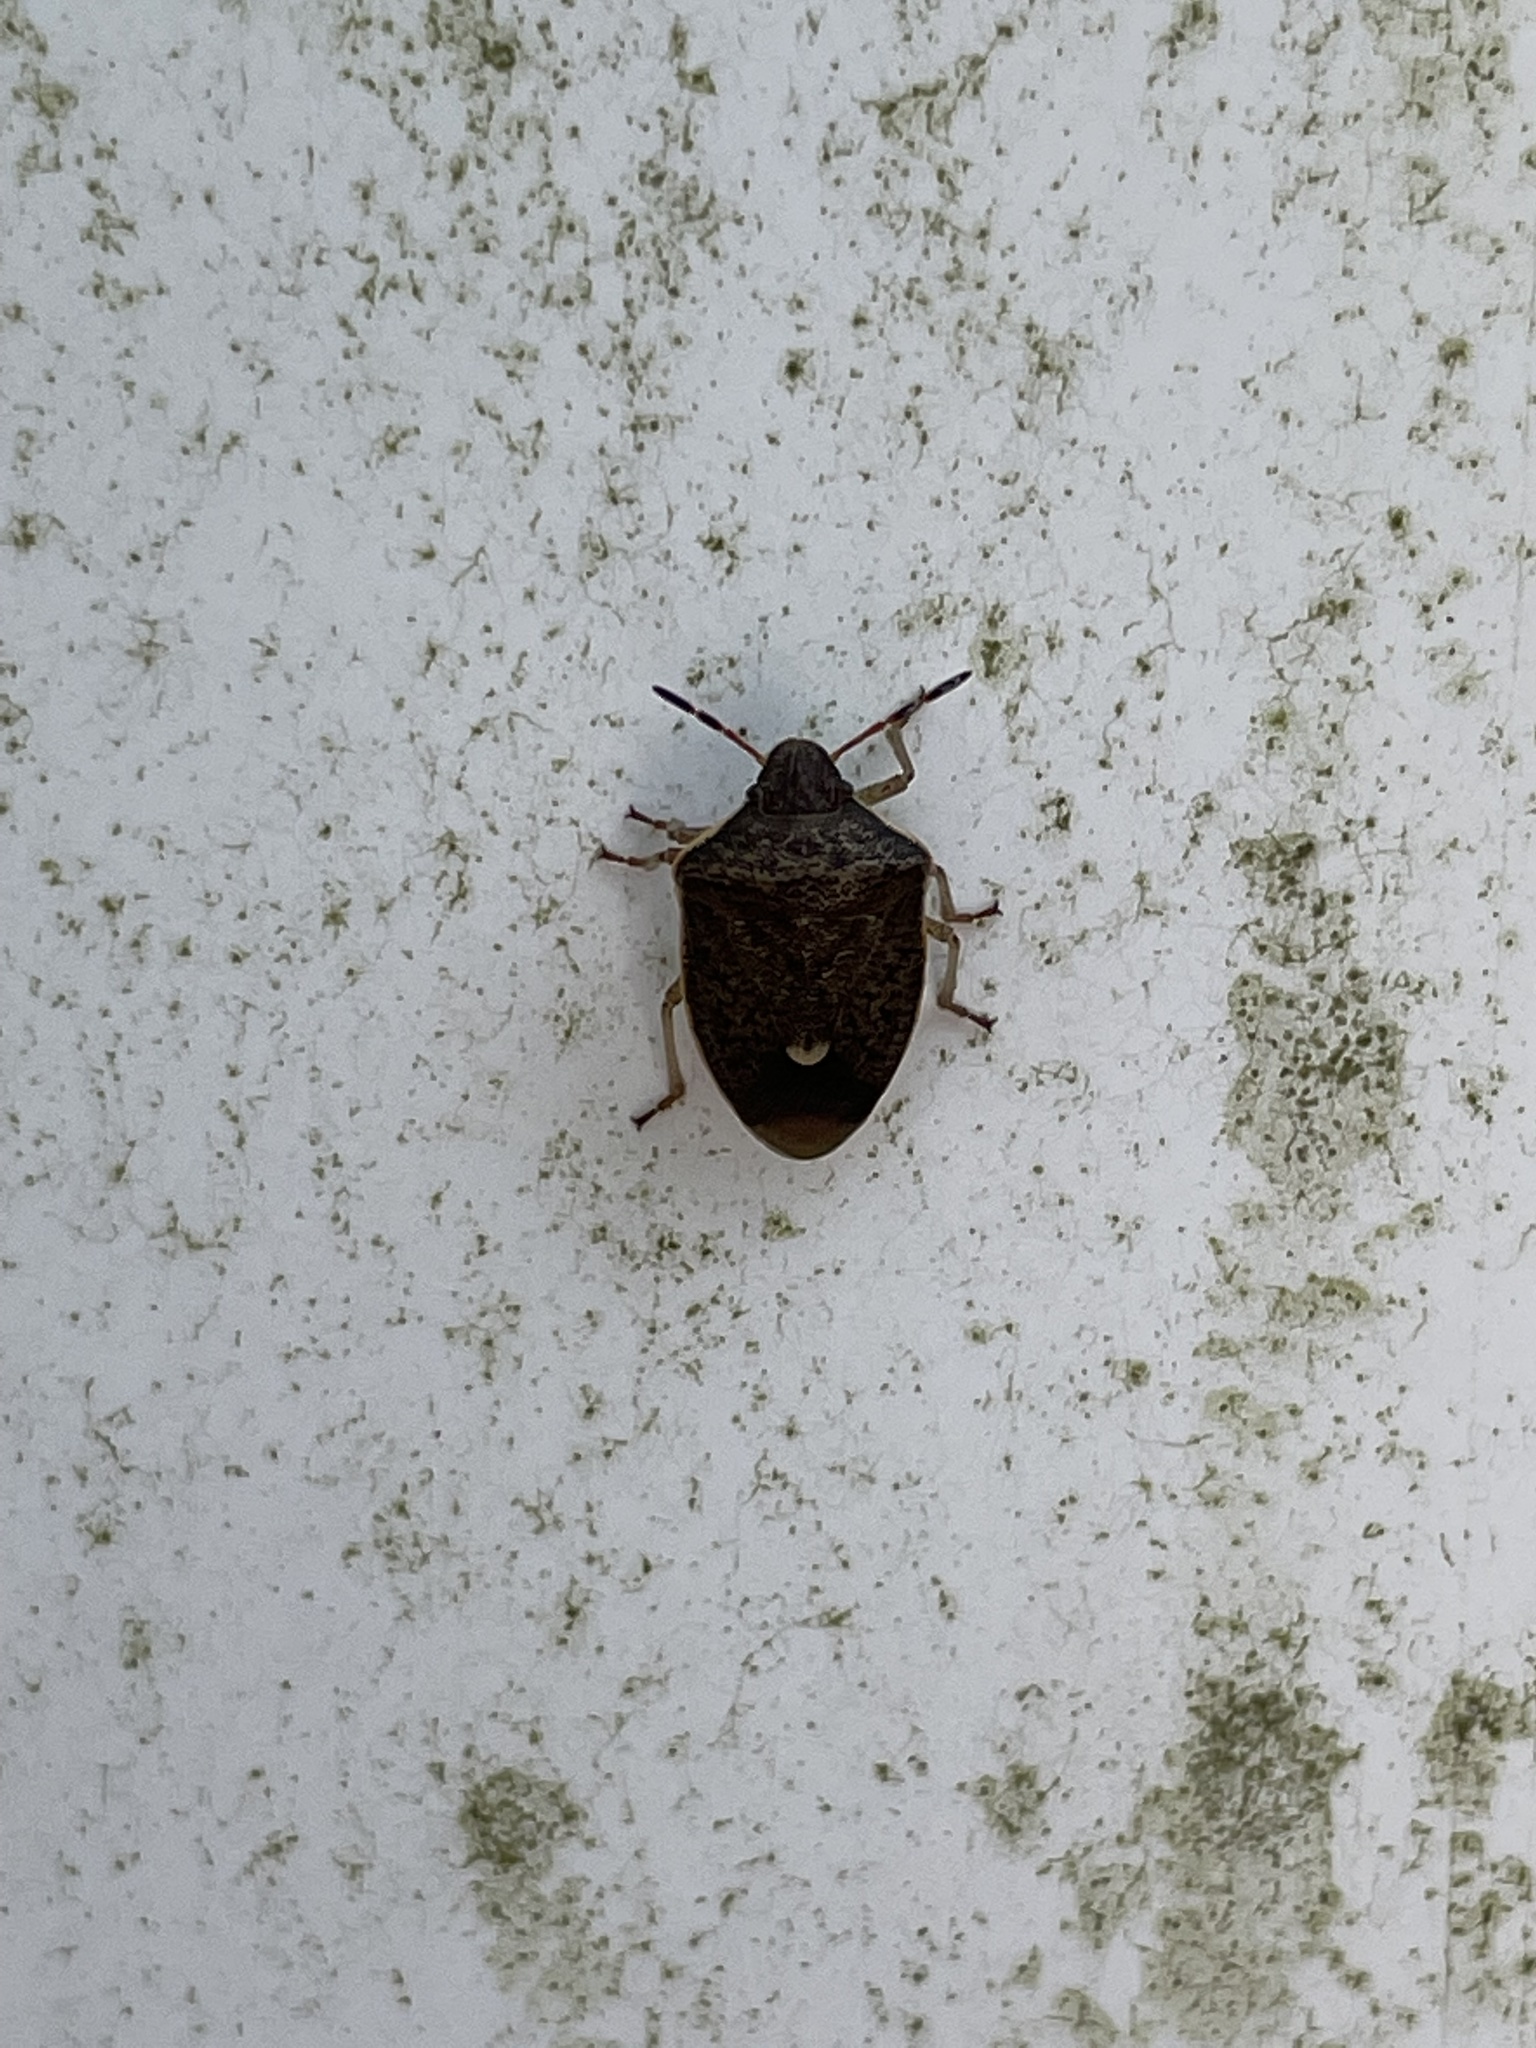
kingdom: Animalia
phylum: Arthropoda
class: Insecta
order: Hemiptera
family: Pentatomidae
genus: Holcostethus
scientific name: Holcostethus limbolarius
